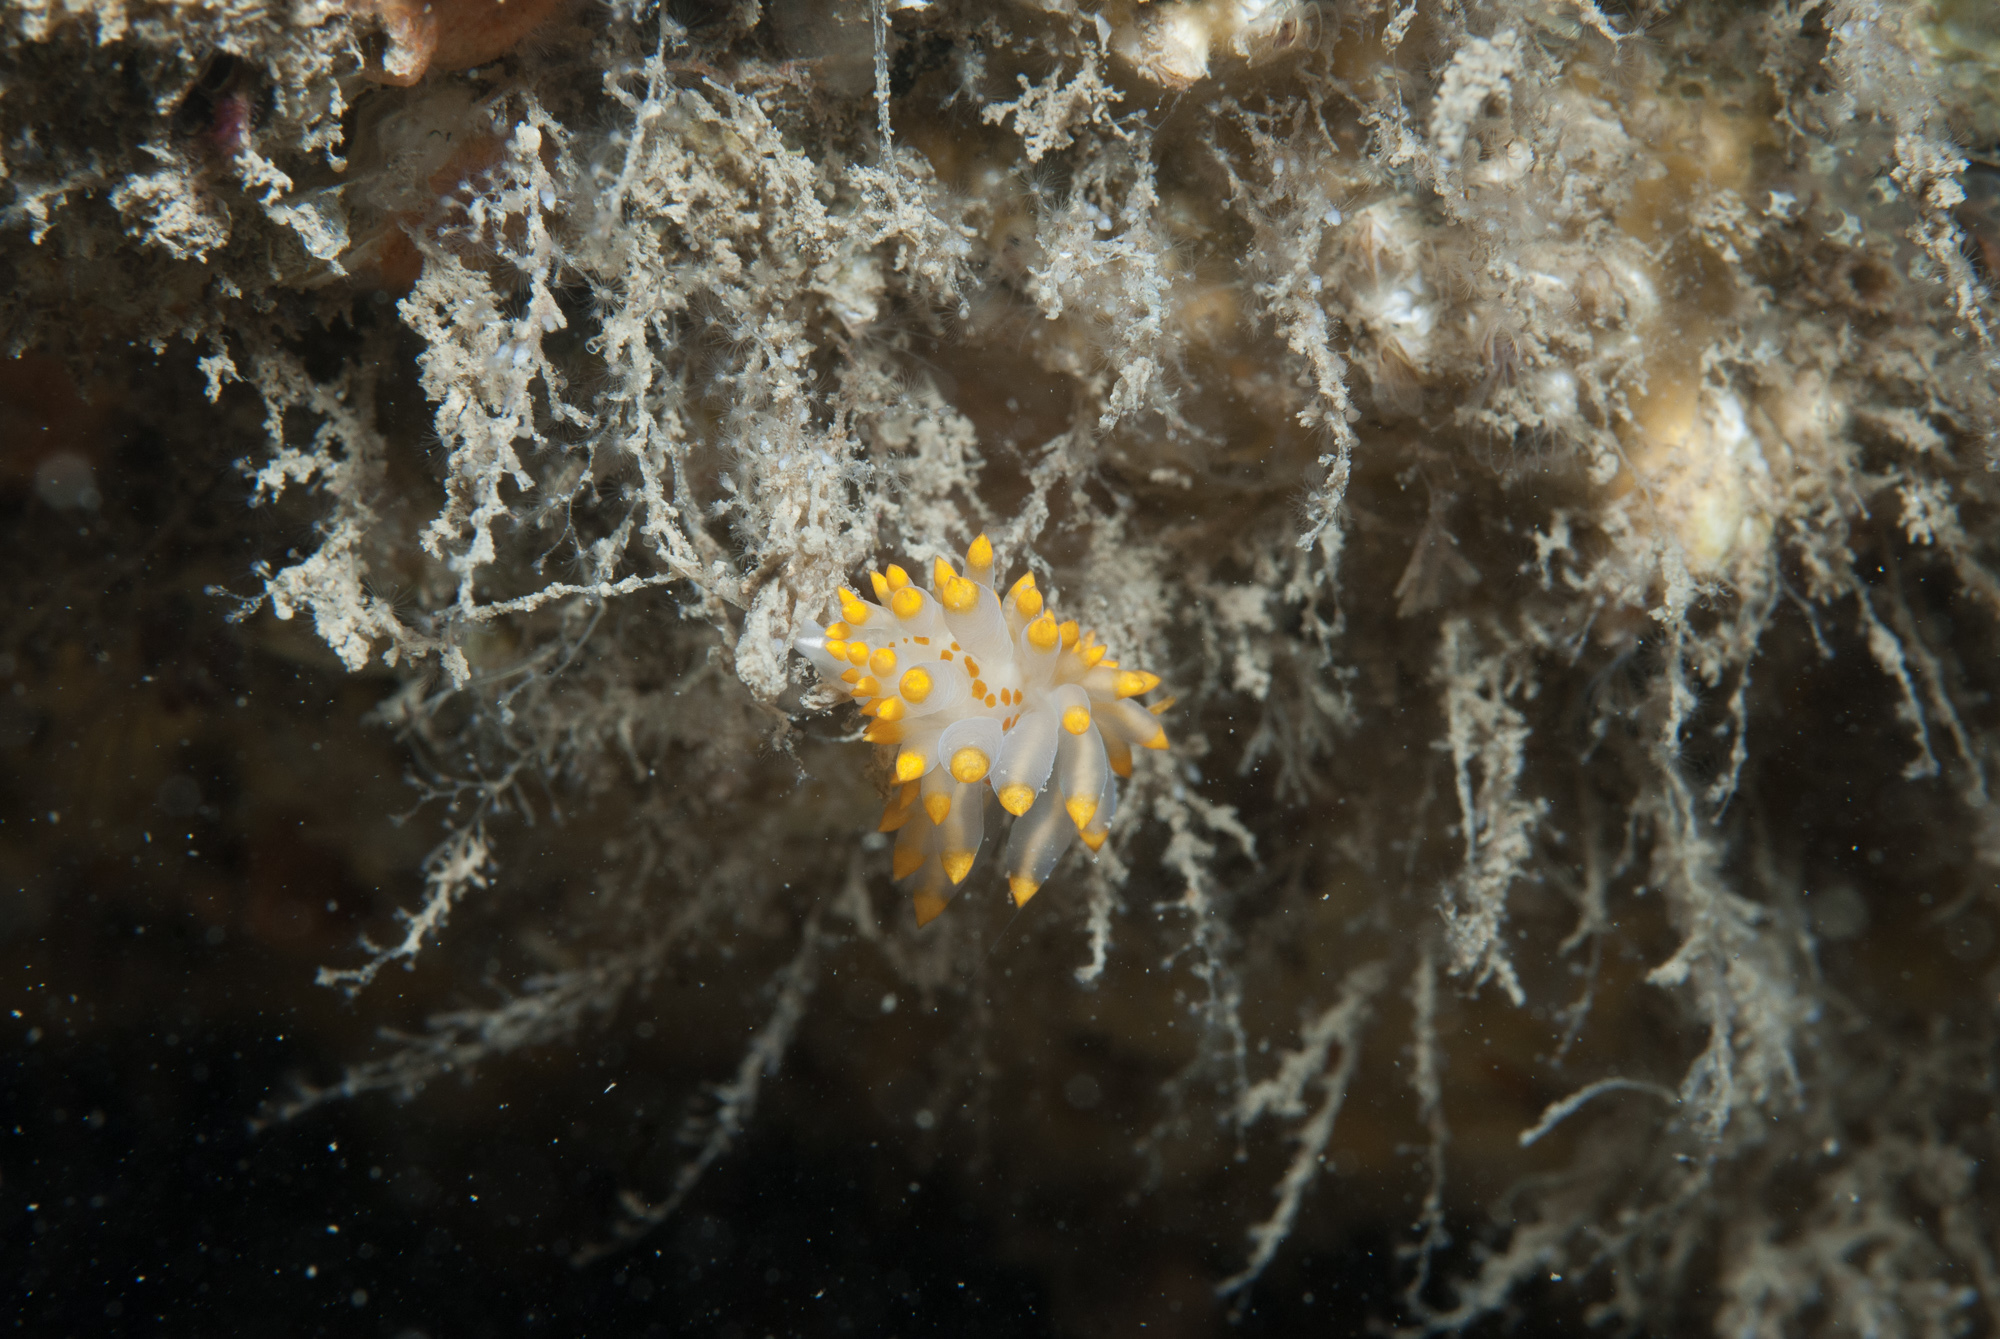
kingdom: Animalia
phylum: Mollusca
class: Gastropoda
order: Nudibranchia
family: Eubranchidae
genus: Amphorina
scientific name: Amphorina farrani
